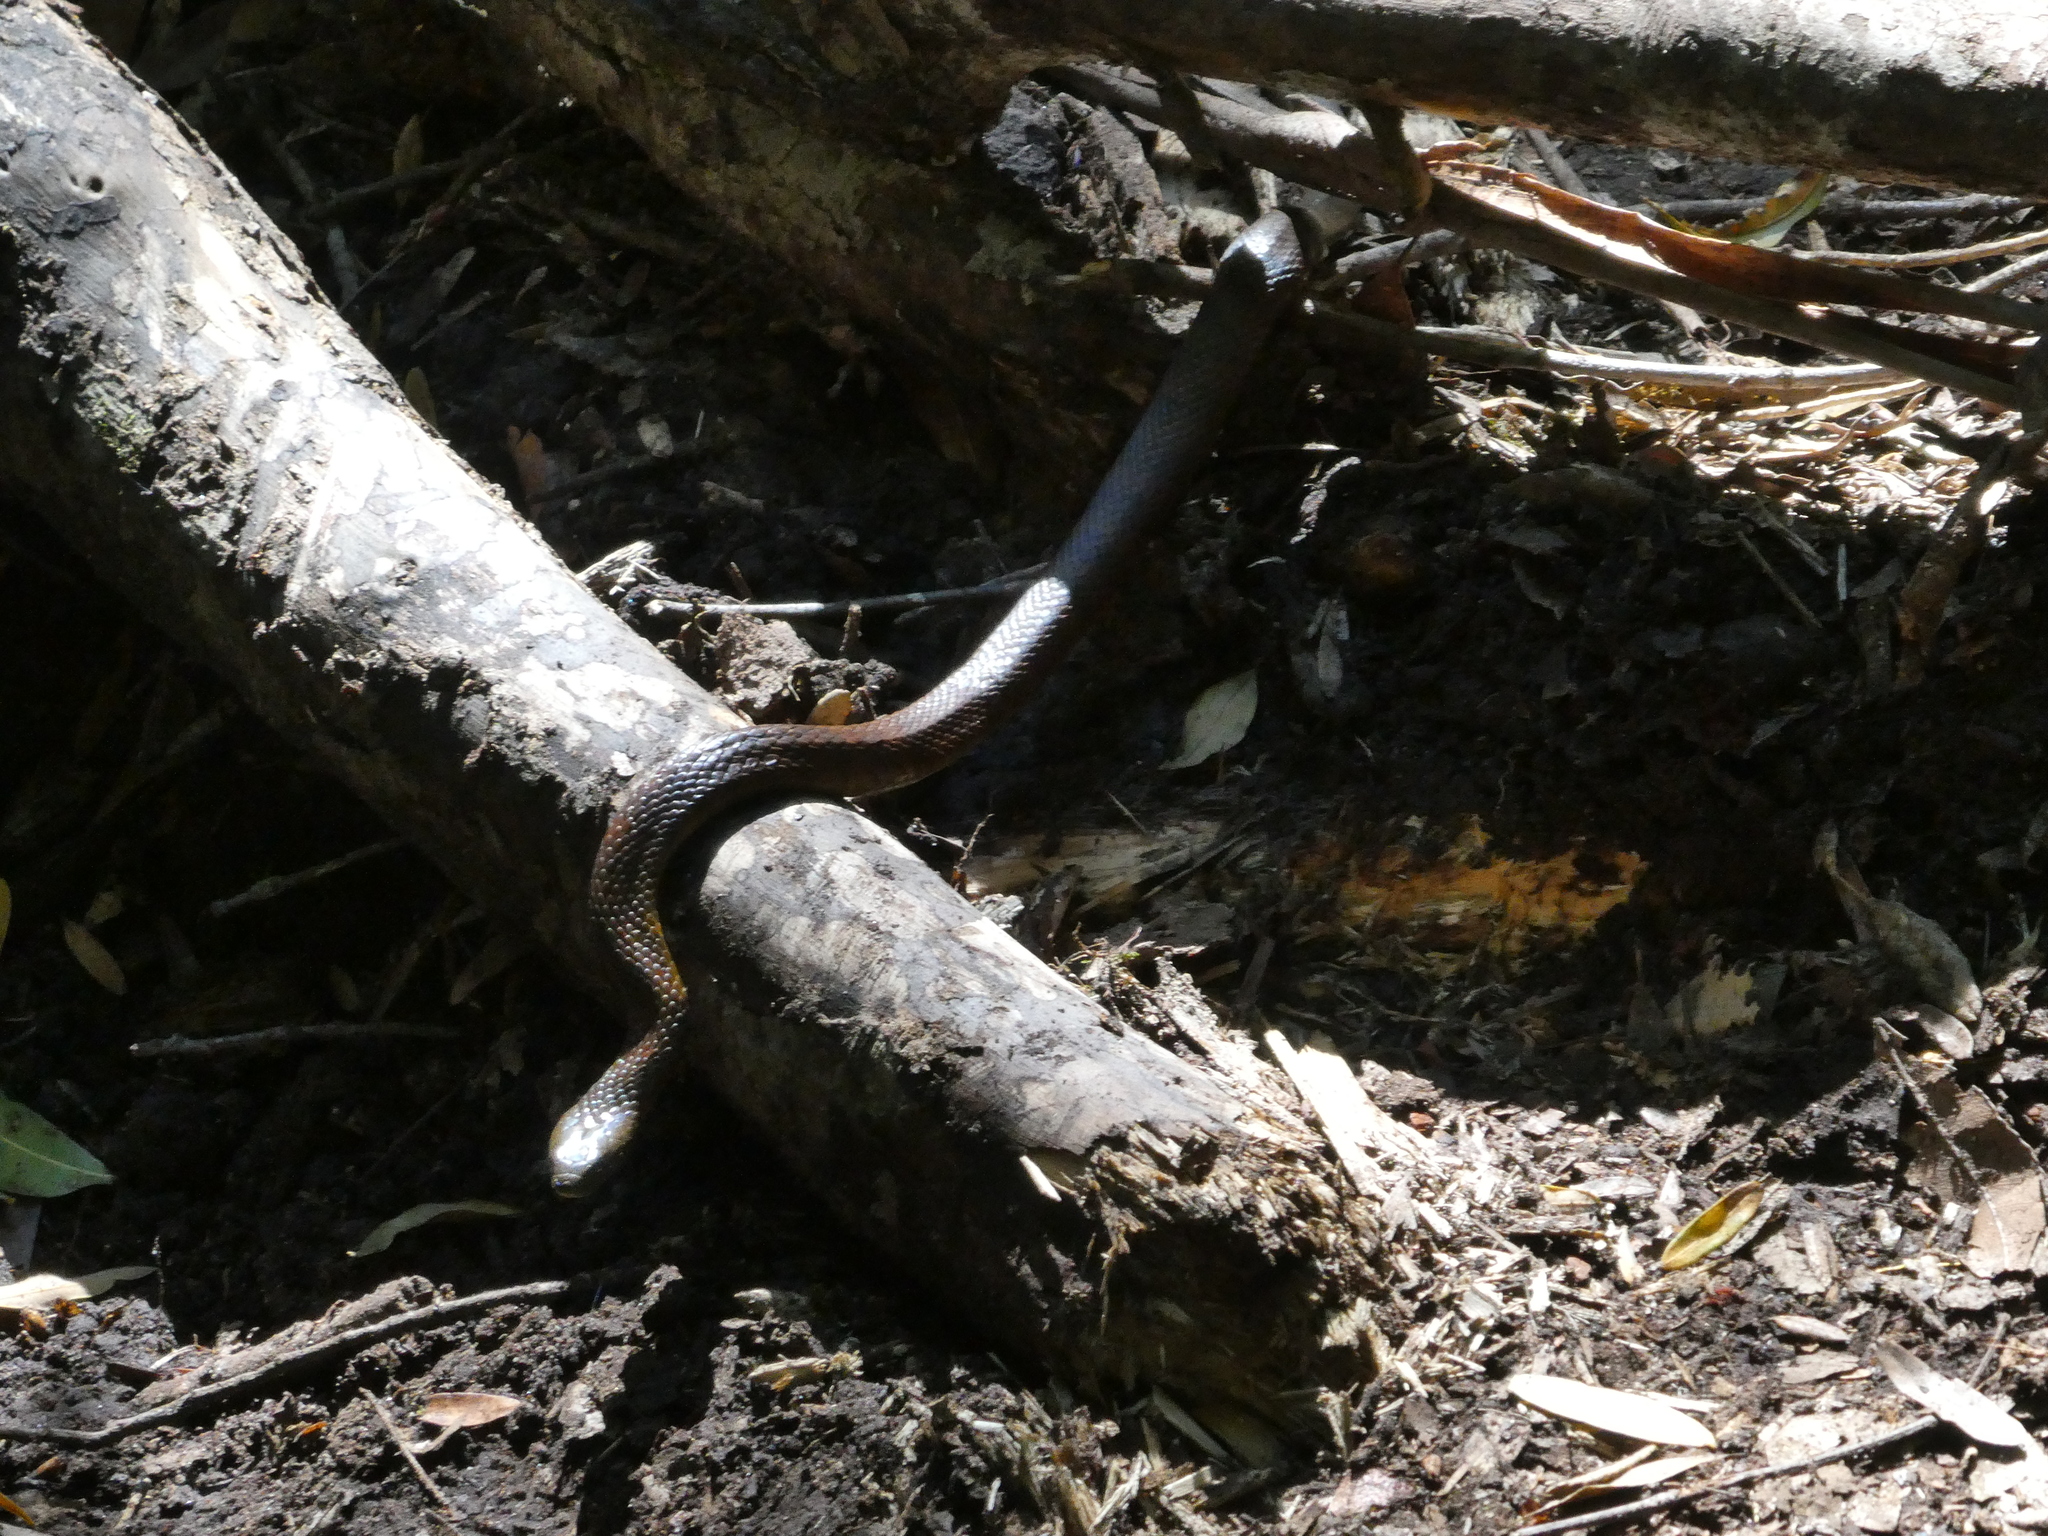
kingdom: Animalia
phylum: Chordata
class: Squamata
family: Elapidae
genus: Notechis
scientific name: Notechis scutatus
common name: Mainland tiger snake
